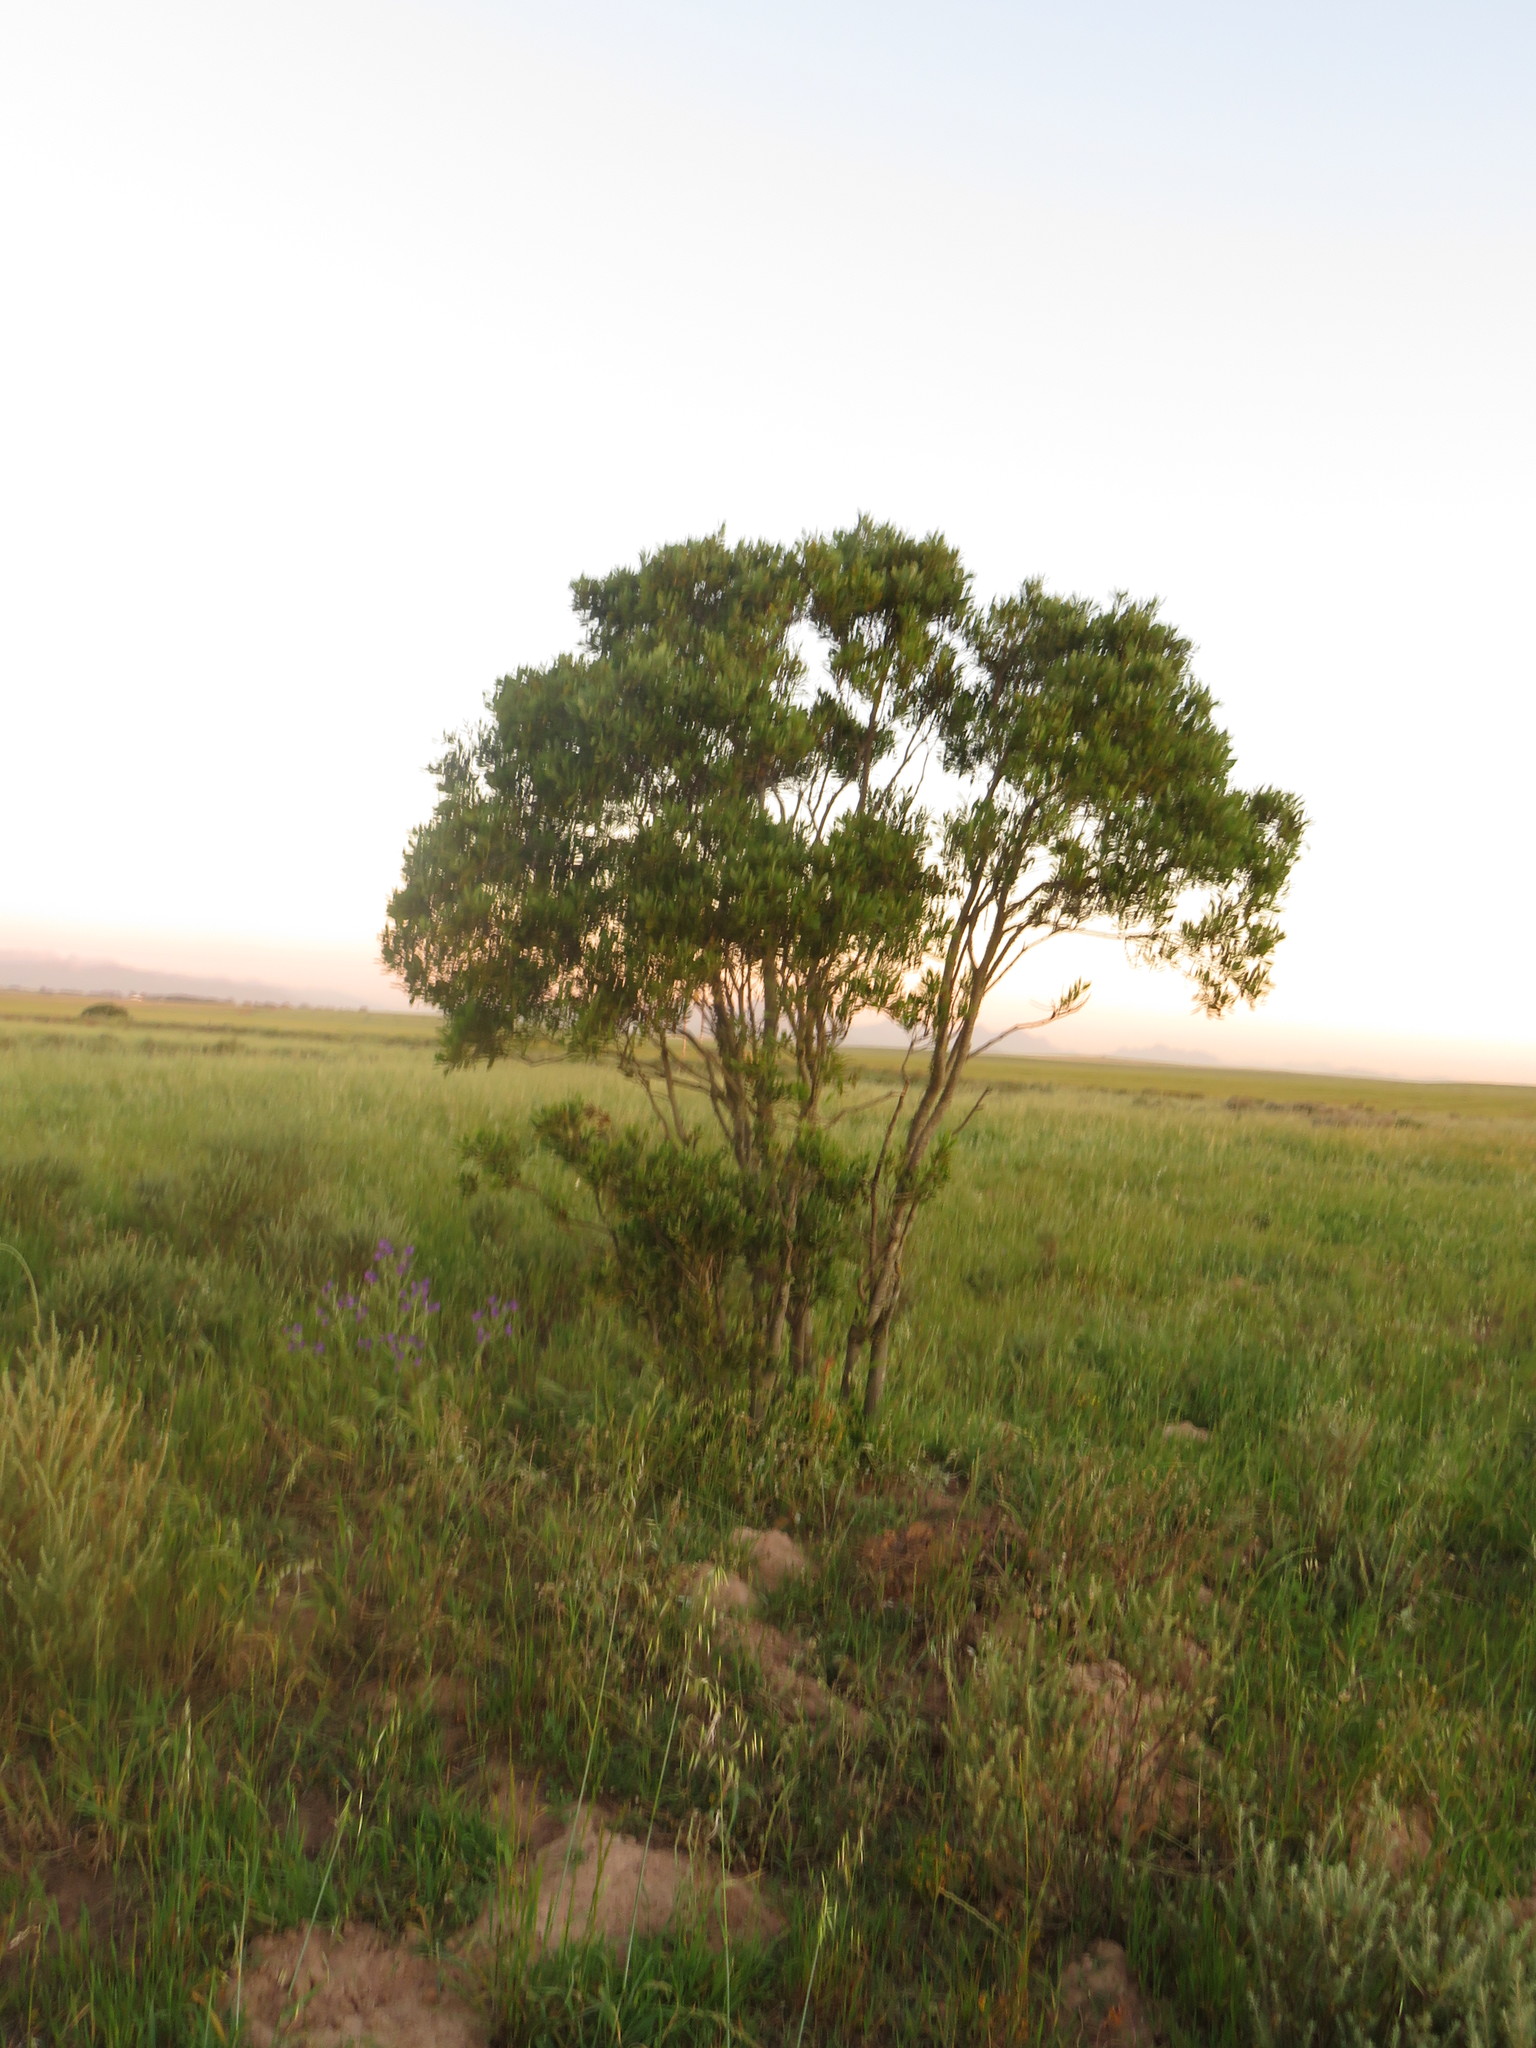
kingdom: Plantae
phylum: Tracheophyta
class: Magnoliopsida
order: Fabales
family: Fabaceae
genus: Acacia
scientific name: Acacia melanoxylon
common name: Blackwood
